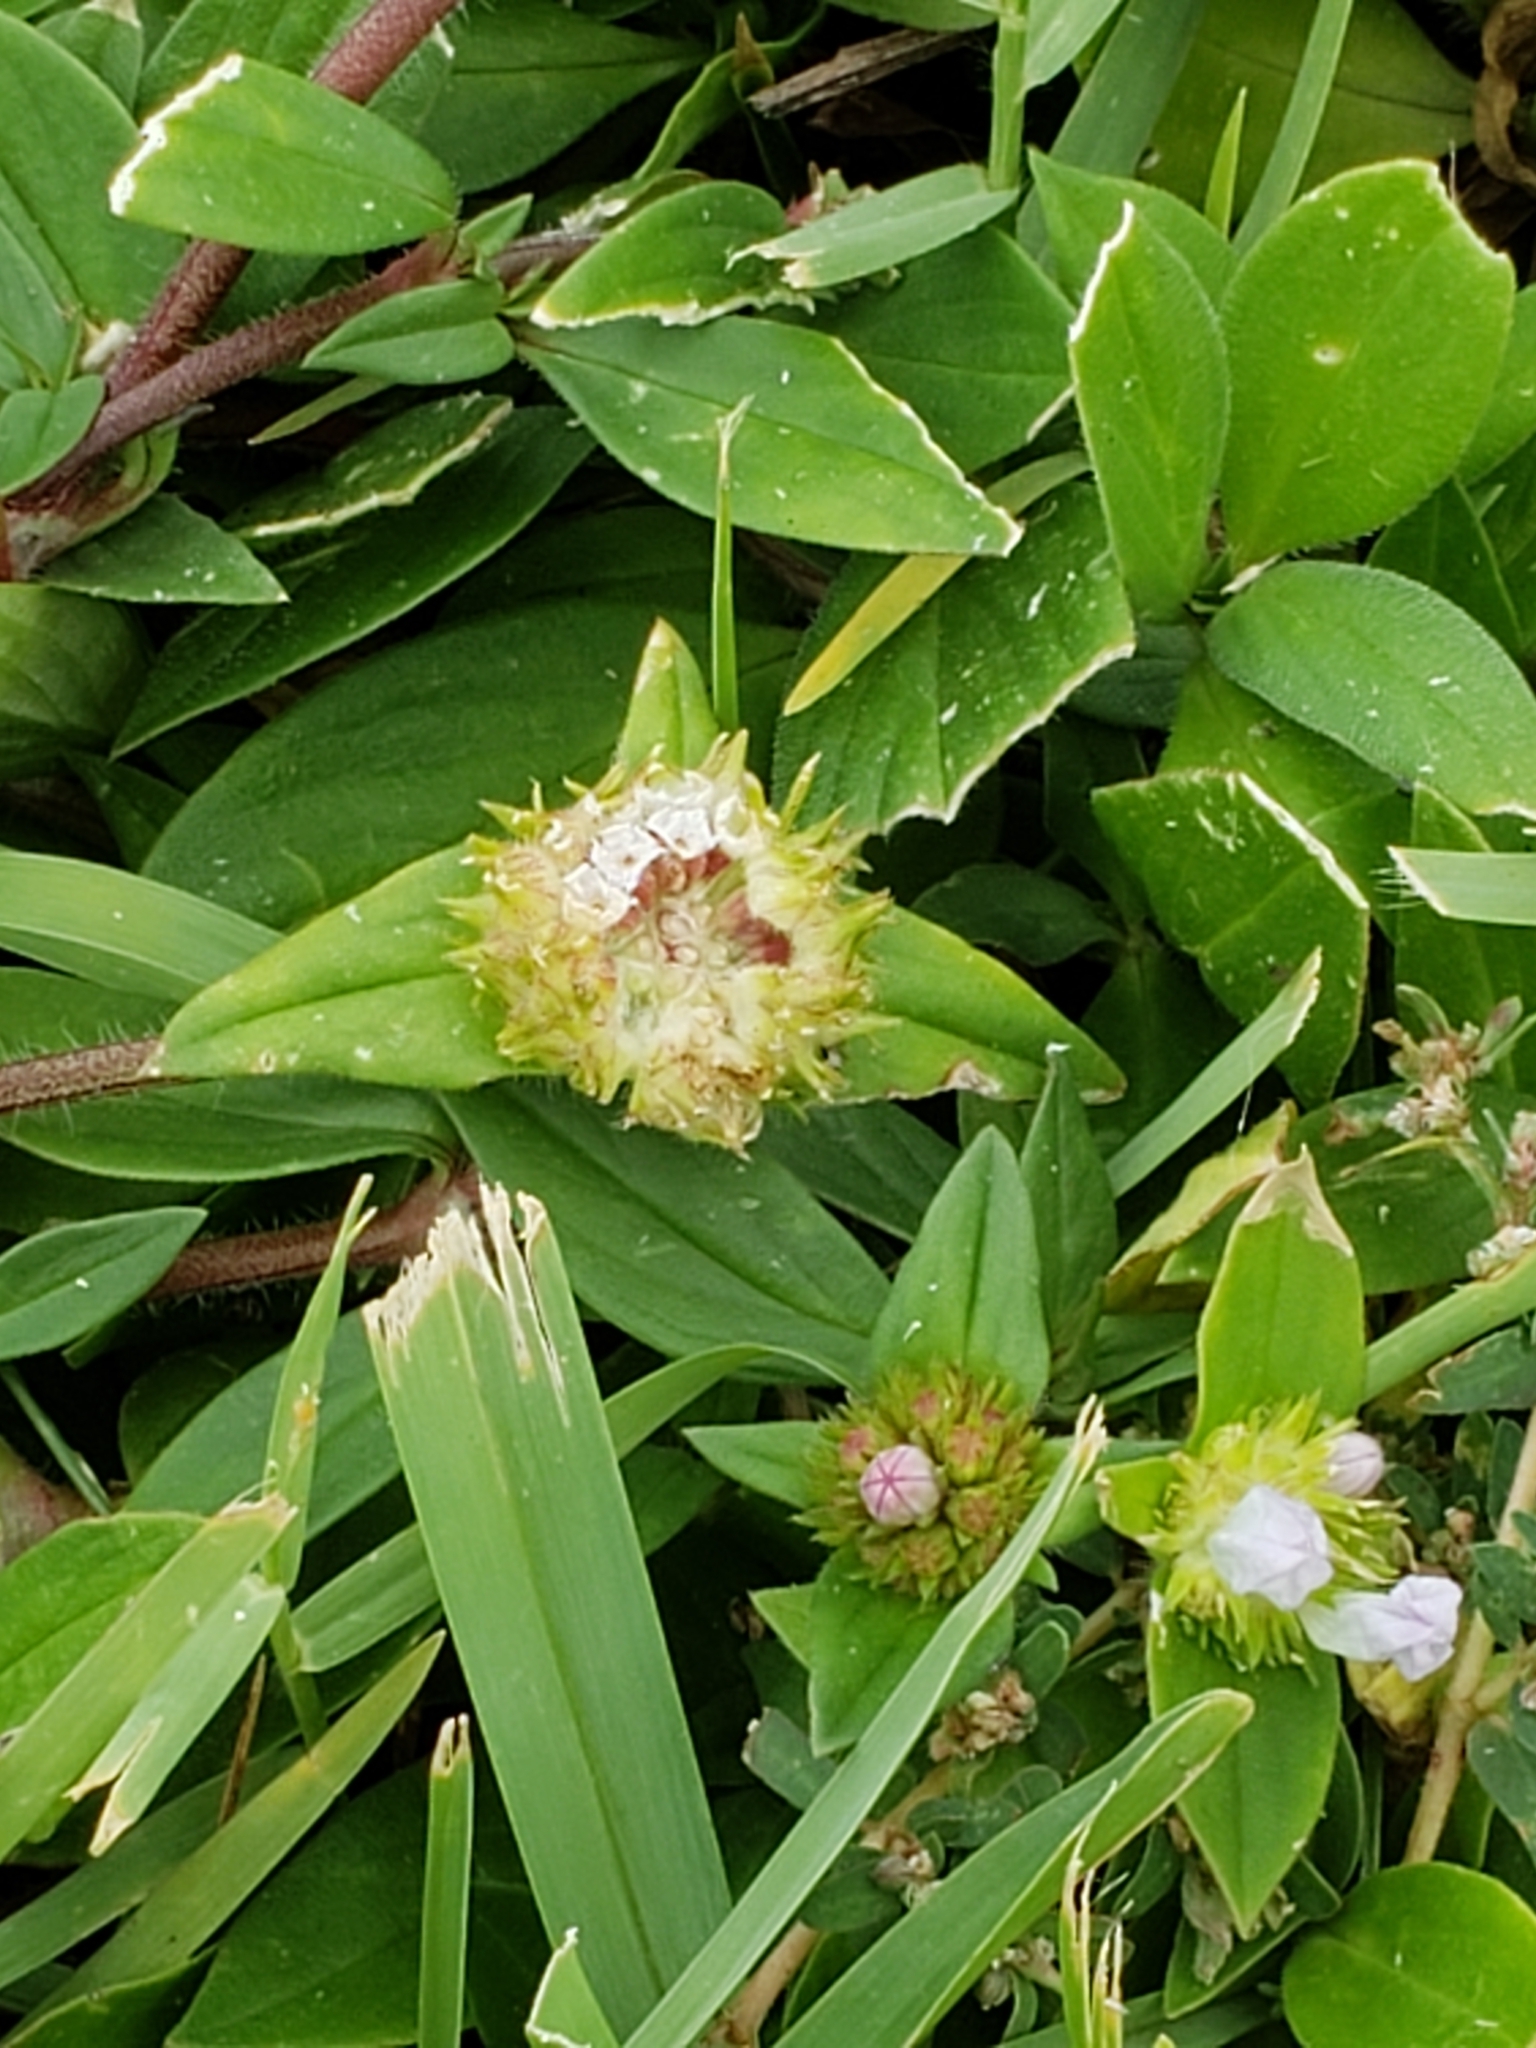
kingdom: Plantae
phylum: Tracheophyta
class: Magnoliopsida
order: Gentianales
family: Rubiaceae
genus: Richardia
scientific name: Richardia grandiflora
